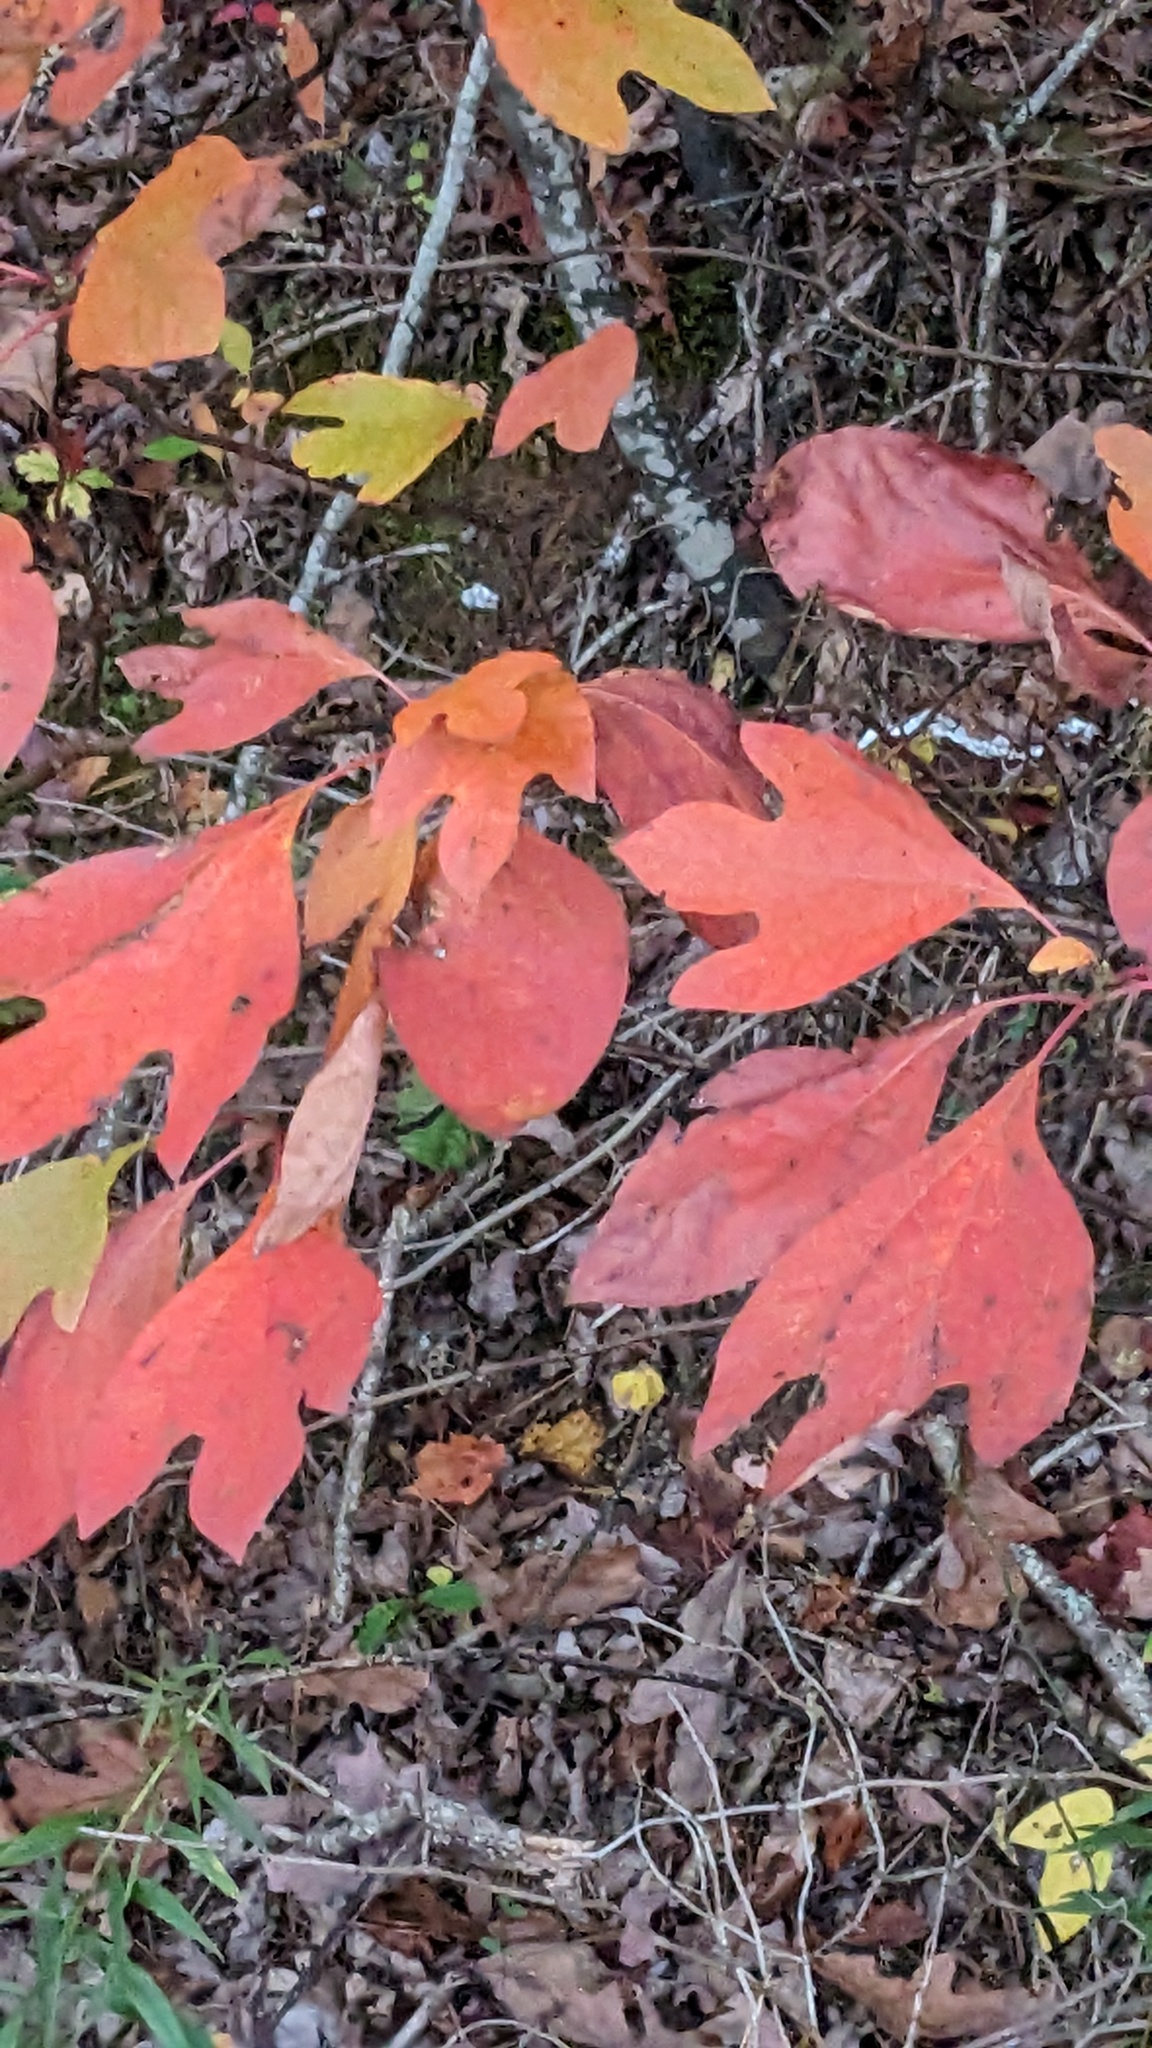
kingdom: Plantae
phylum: Tracheophyta
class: Magnoliopsida
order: Laurales
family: Lauraceae
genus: Sassafras
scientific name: Sassafras albidum
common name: Sassafras
